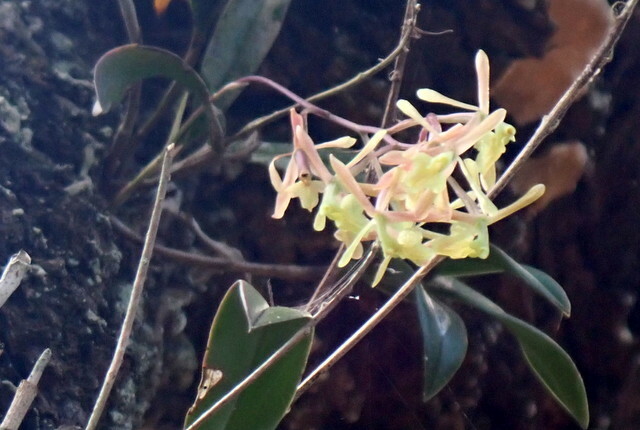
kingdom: Plantae
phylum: Tracheophyta
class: Liliopsida
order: Asparagales
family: Orchidaceae
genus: Epidendrum
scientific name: Epidendrum conopseum
